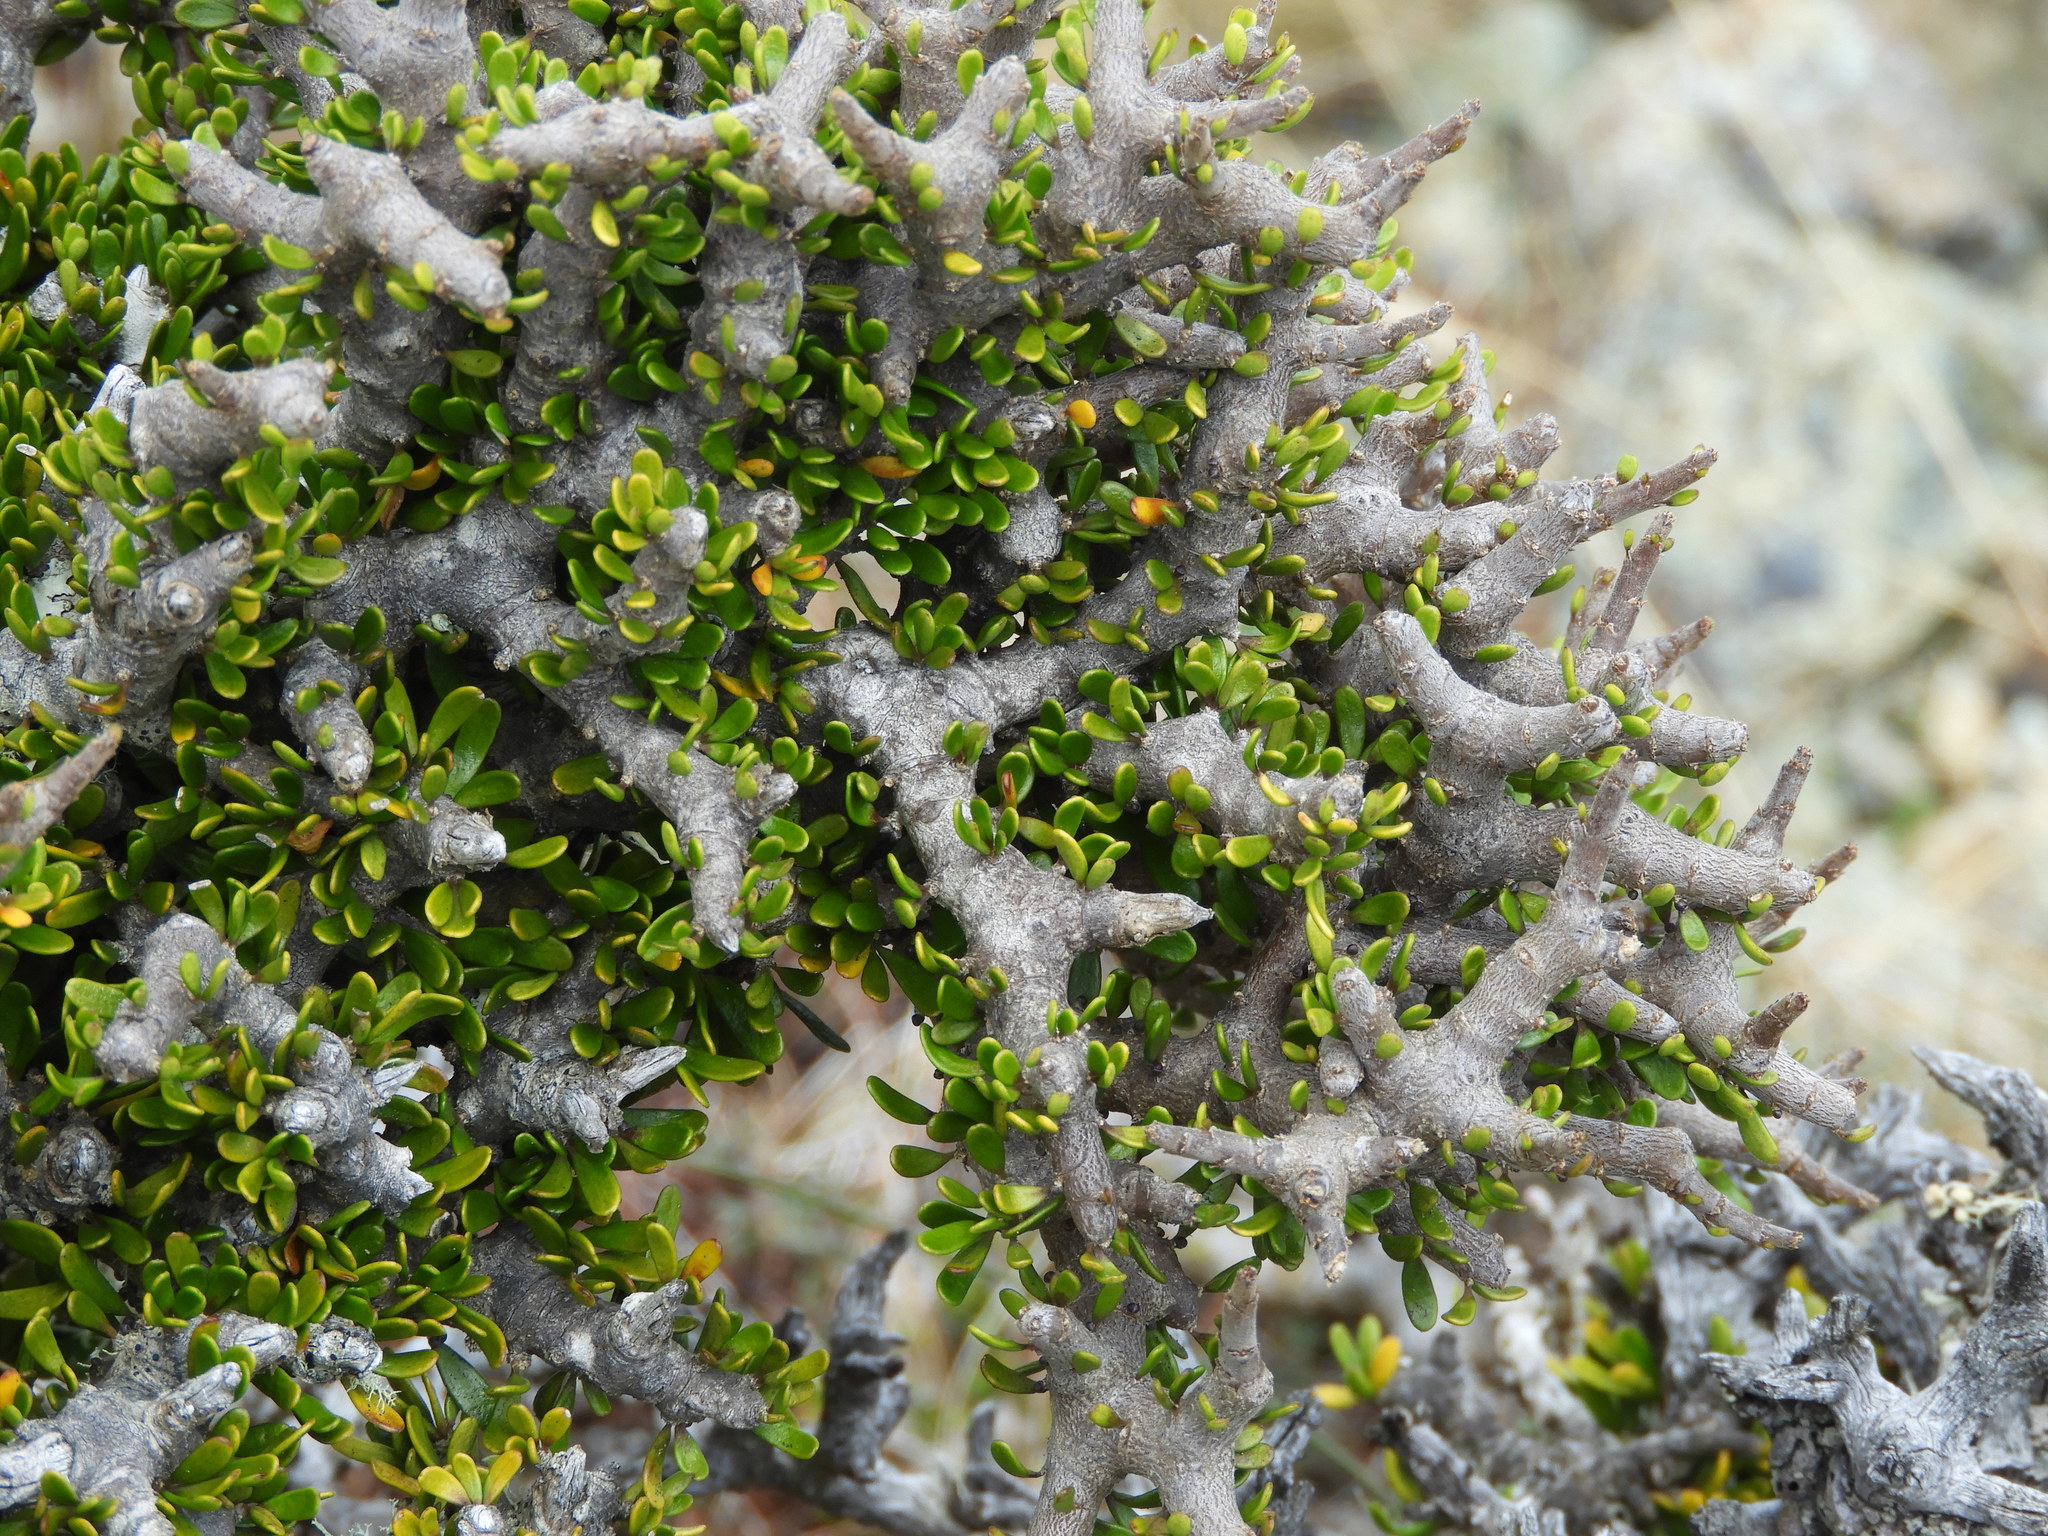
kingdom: Plantae
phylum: Tracheophyta
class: Magnoliopsida
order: Malpighiales
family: Violaceae
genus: Melicytus
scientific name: Melicytus alpinus
